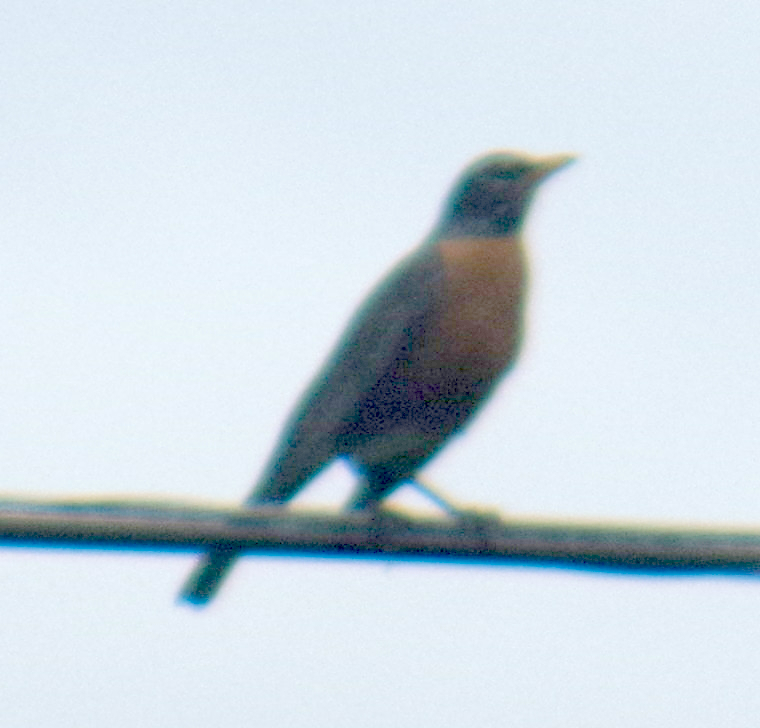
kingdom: Animalia
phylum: Chordata
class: Aves
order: Passeriformes
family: Turdidae
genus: Turdus
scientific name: Turdus migratorius
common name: American robin
